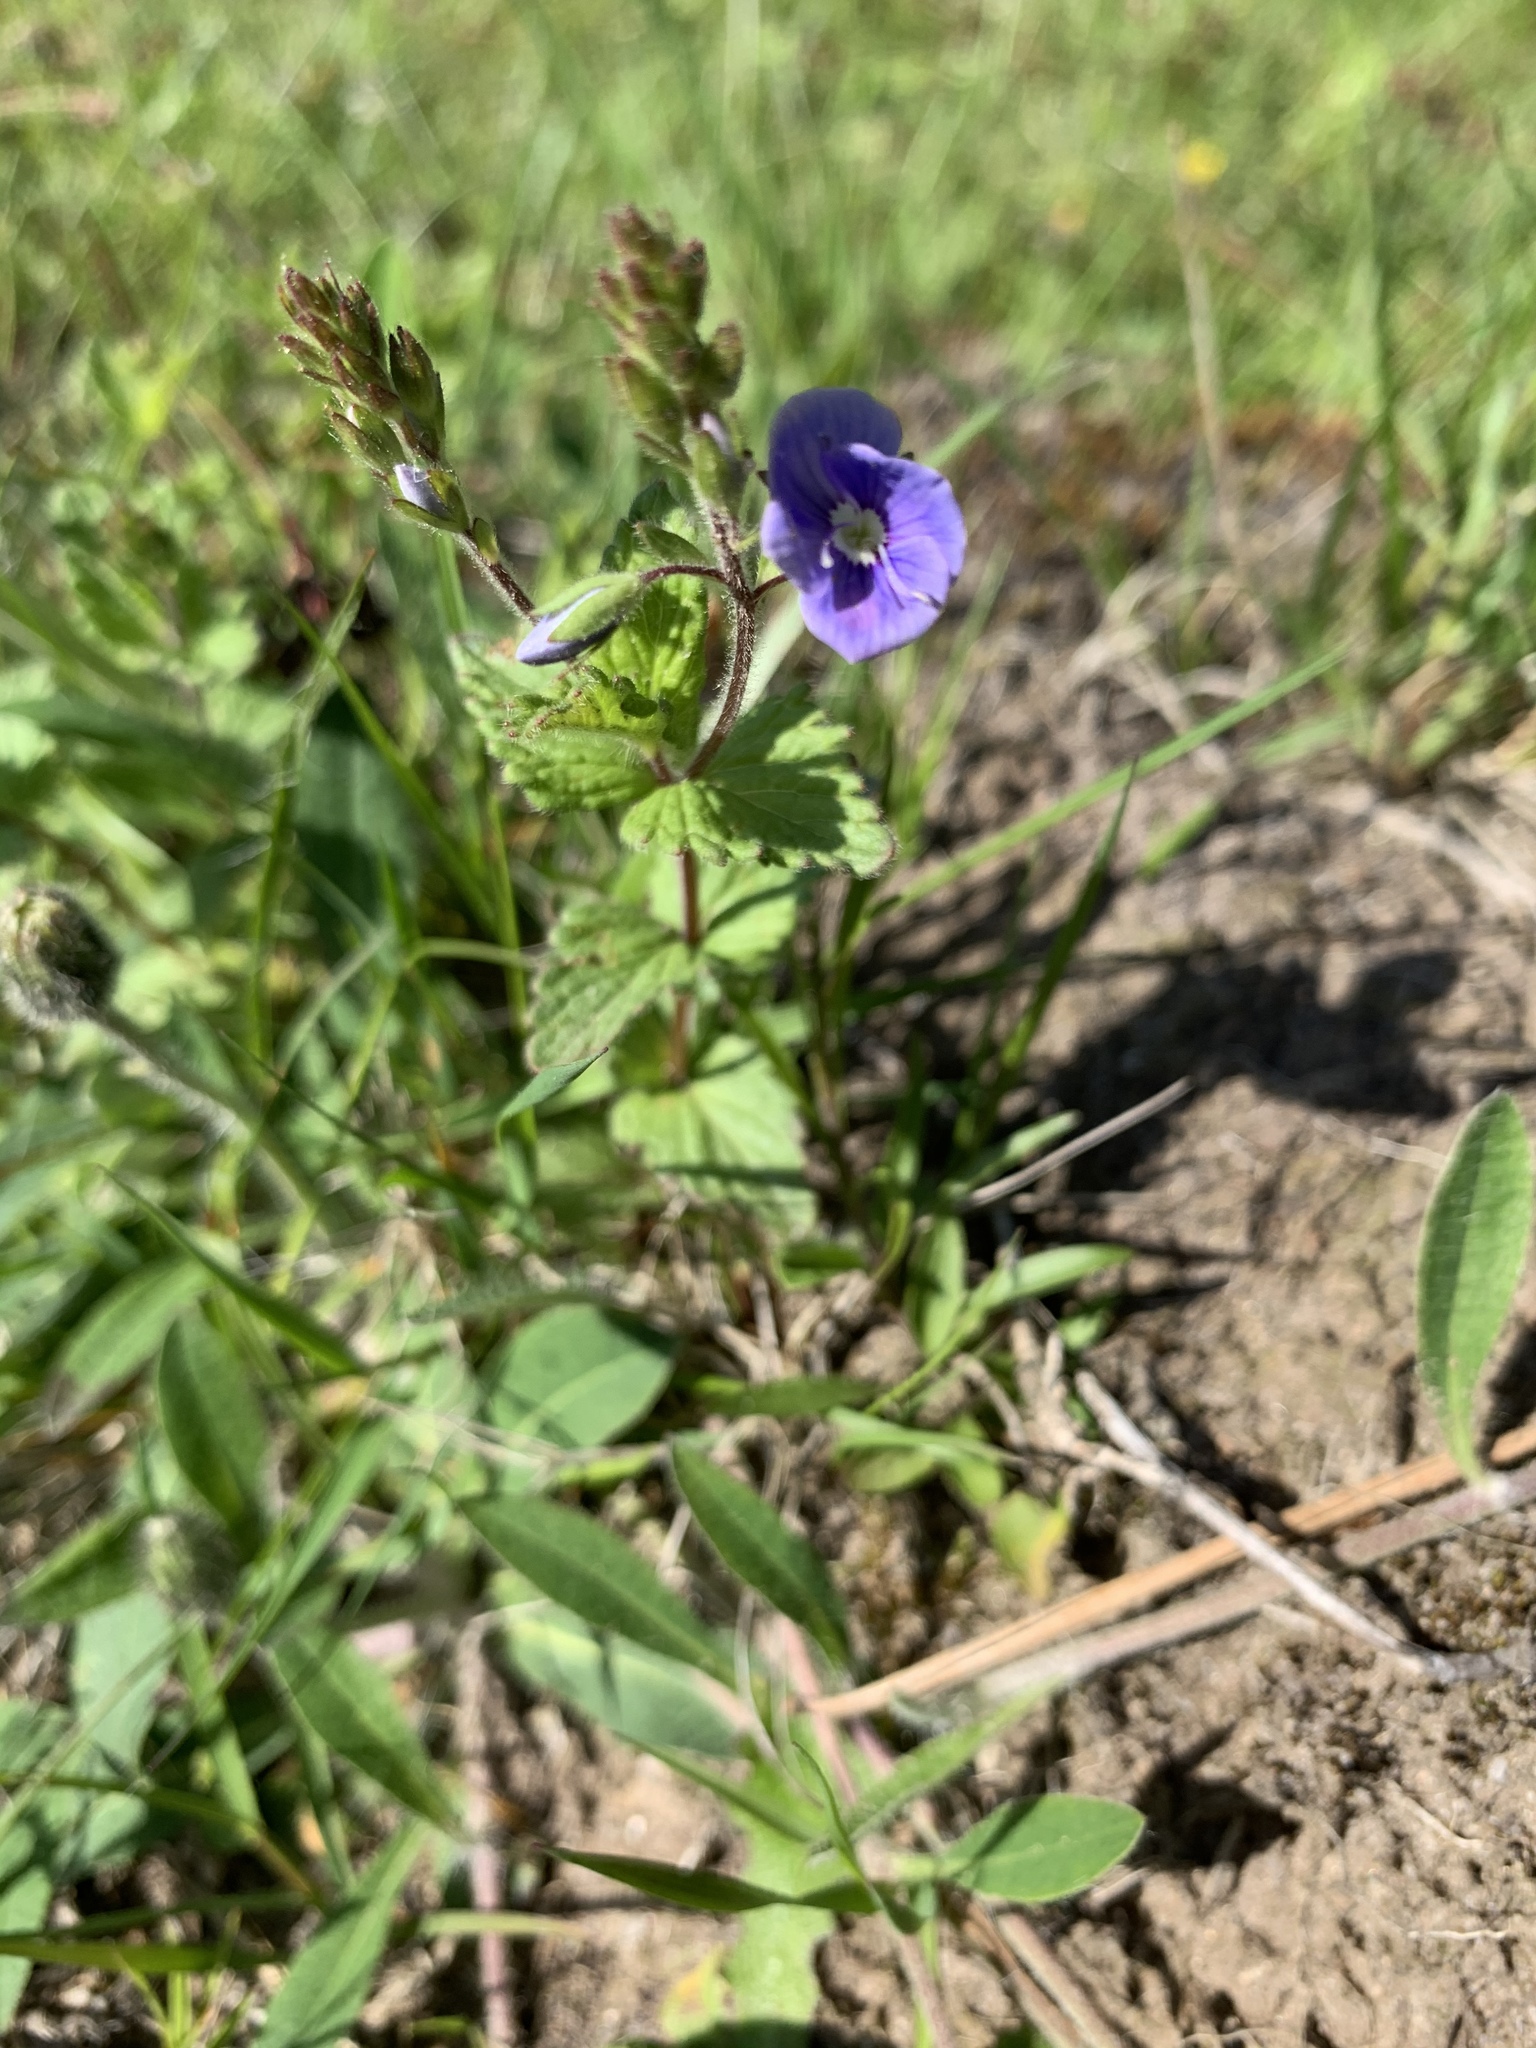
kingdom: Plantae
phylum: Tracheophyta
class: Magnoliopsida
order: Lamiales
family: Plantaginaceae
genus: Veronica
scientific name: Veronica chamaedrys
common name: Germander speedwell
